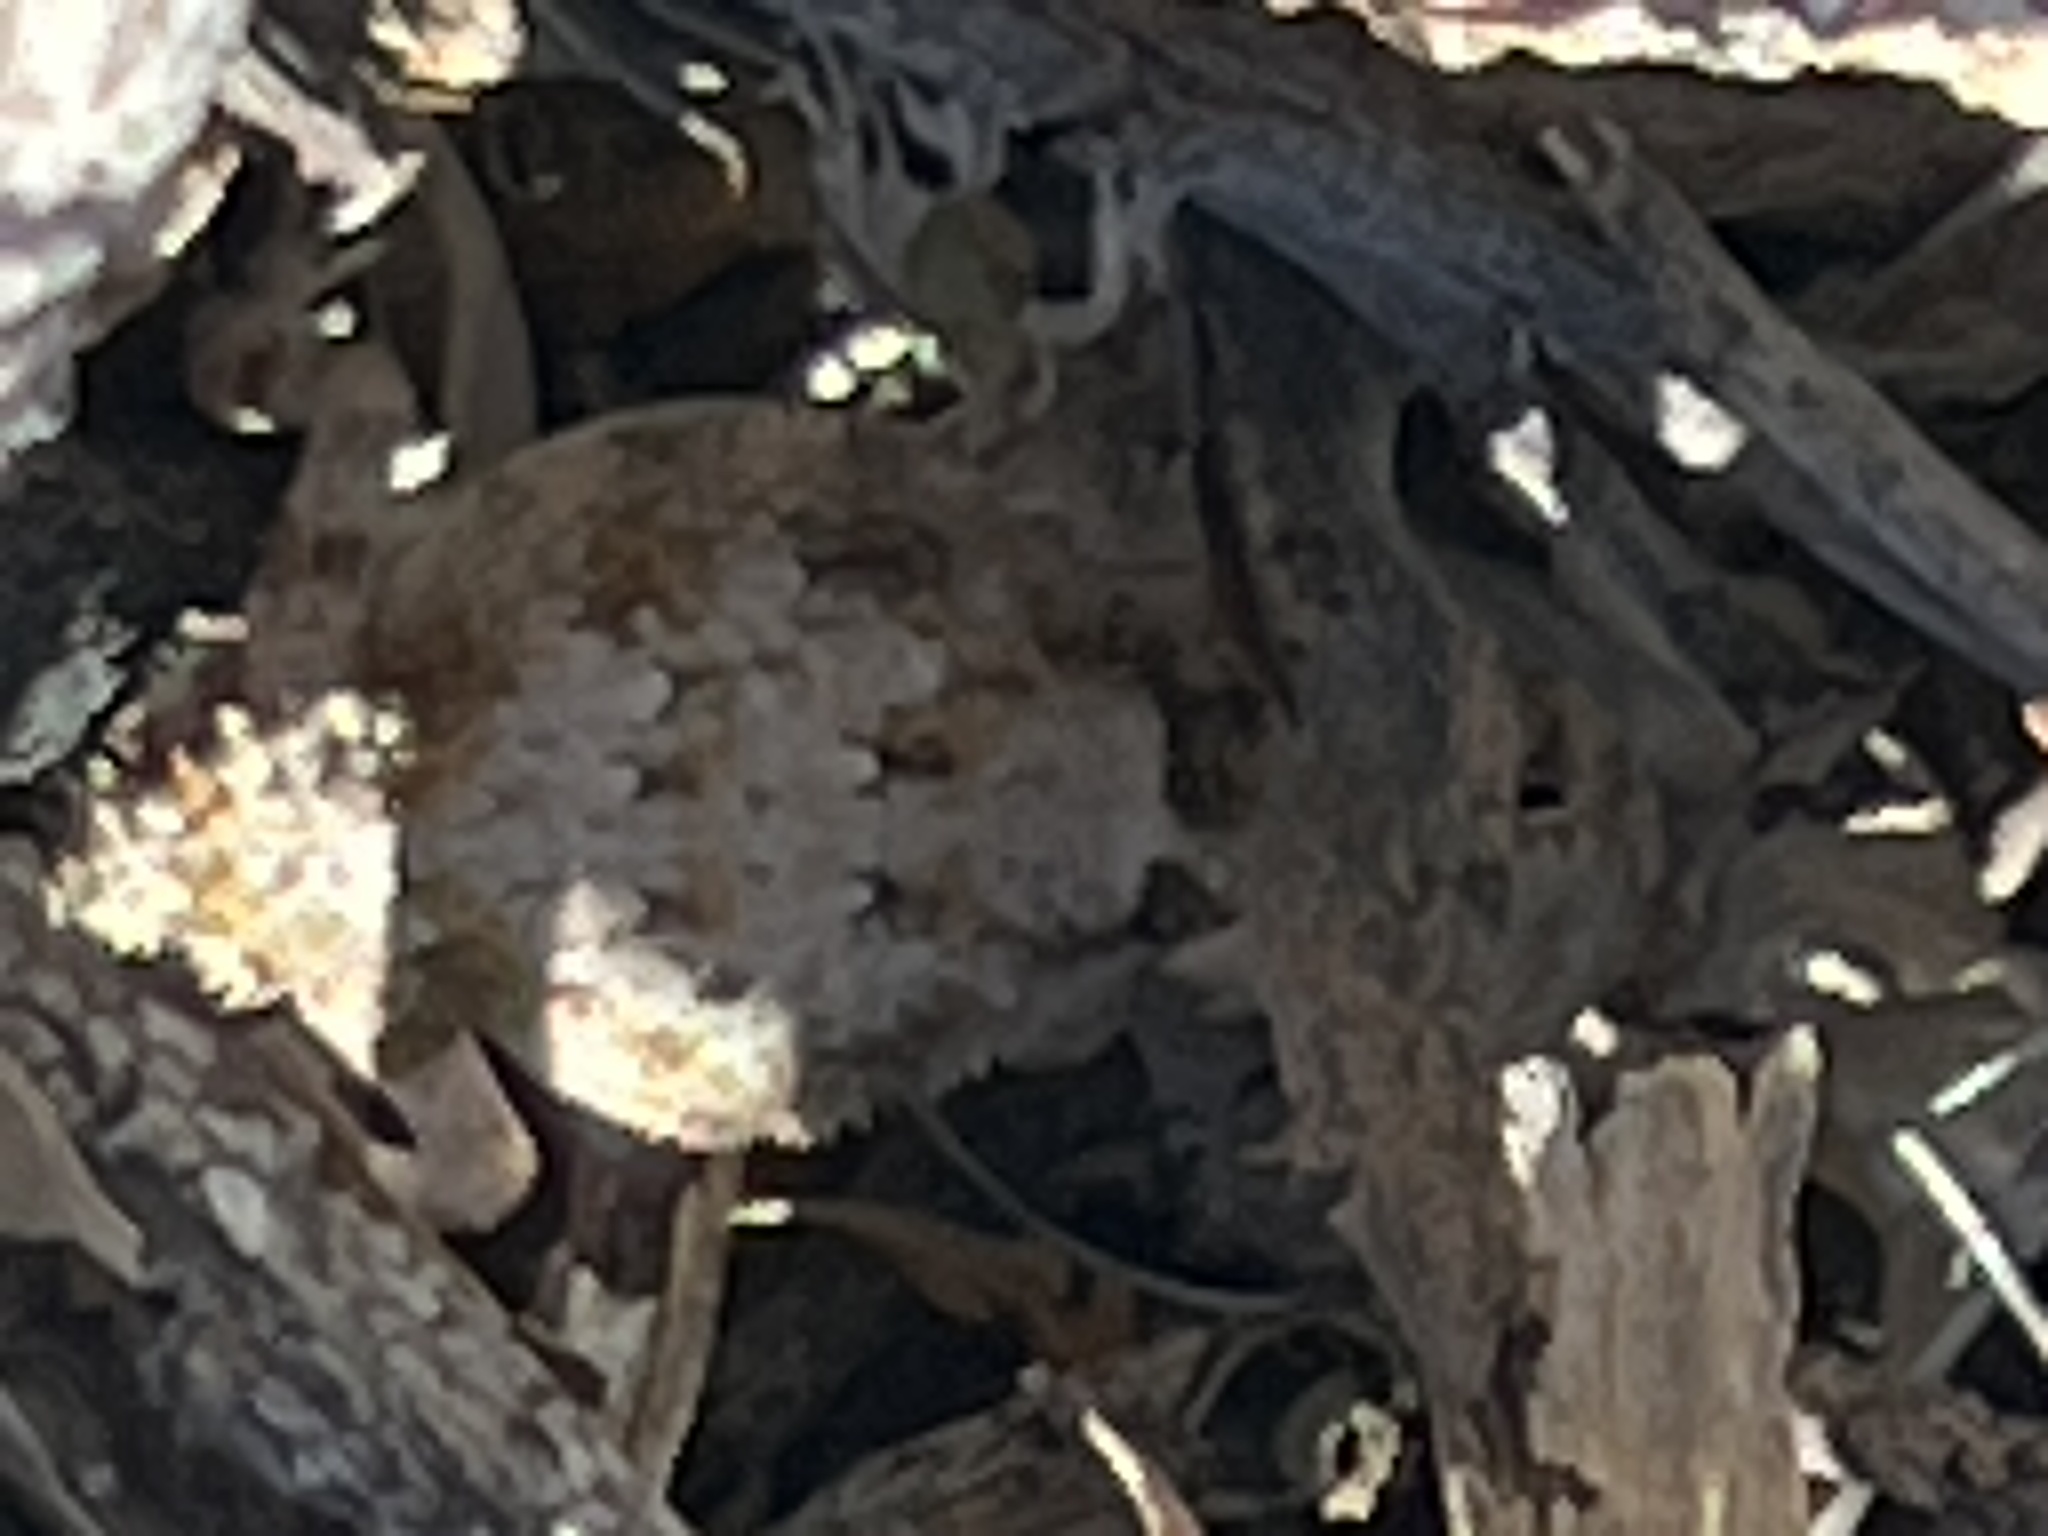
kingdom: Animalia
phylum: Chordata
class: Squamata
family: Phrynosomatidae
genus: Phrynosoma
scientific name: Phrynosoma platyrhinos
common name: Desert horned lizard
